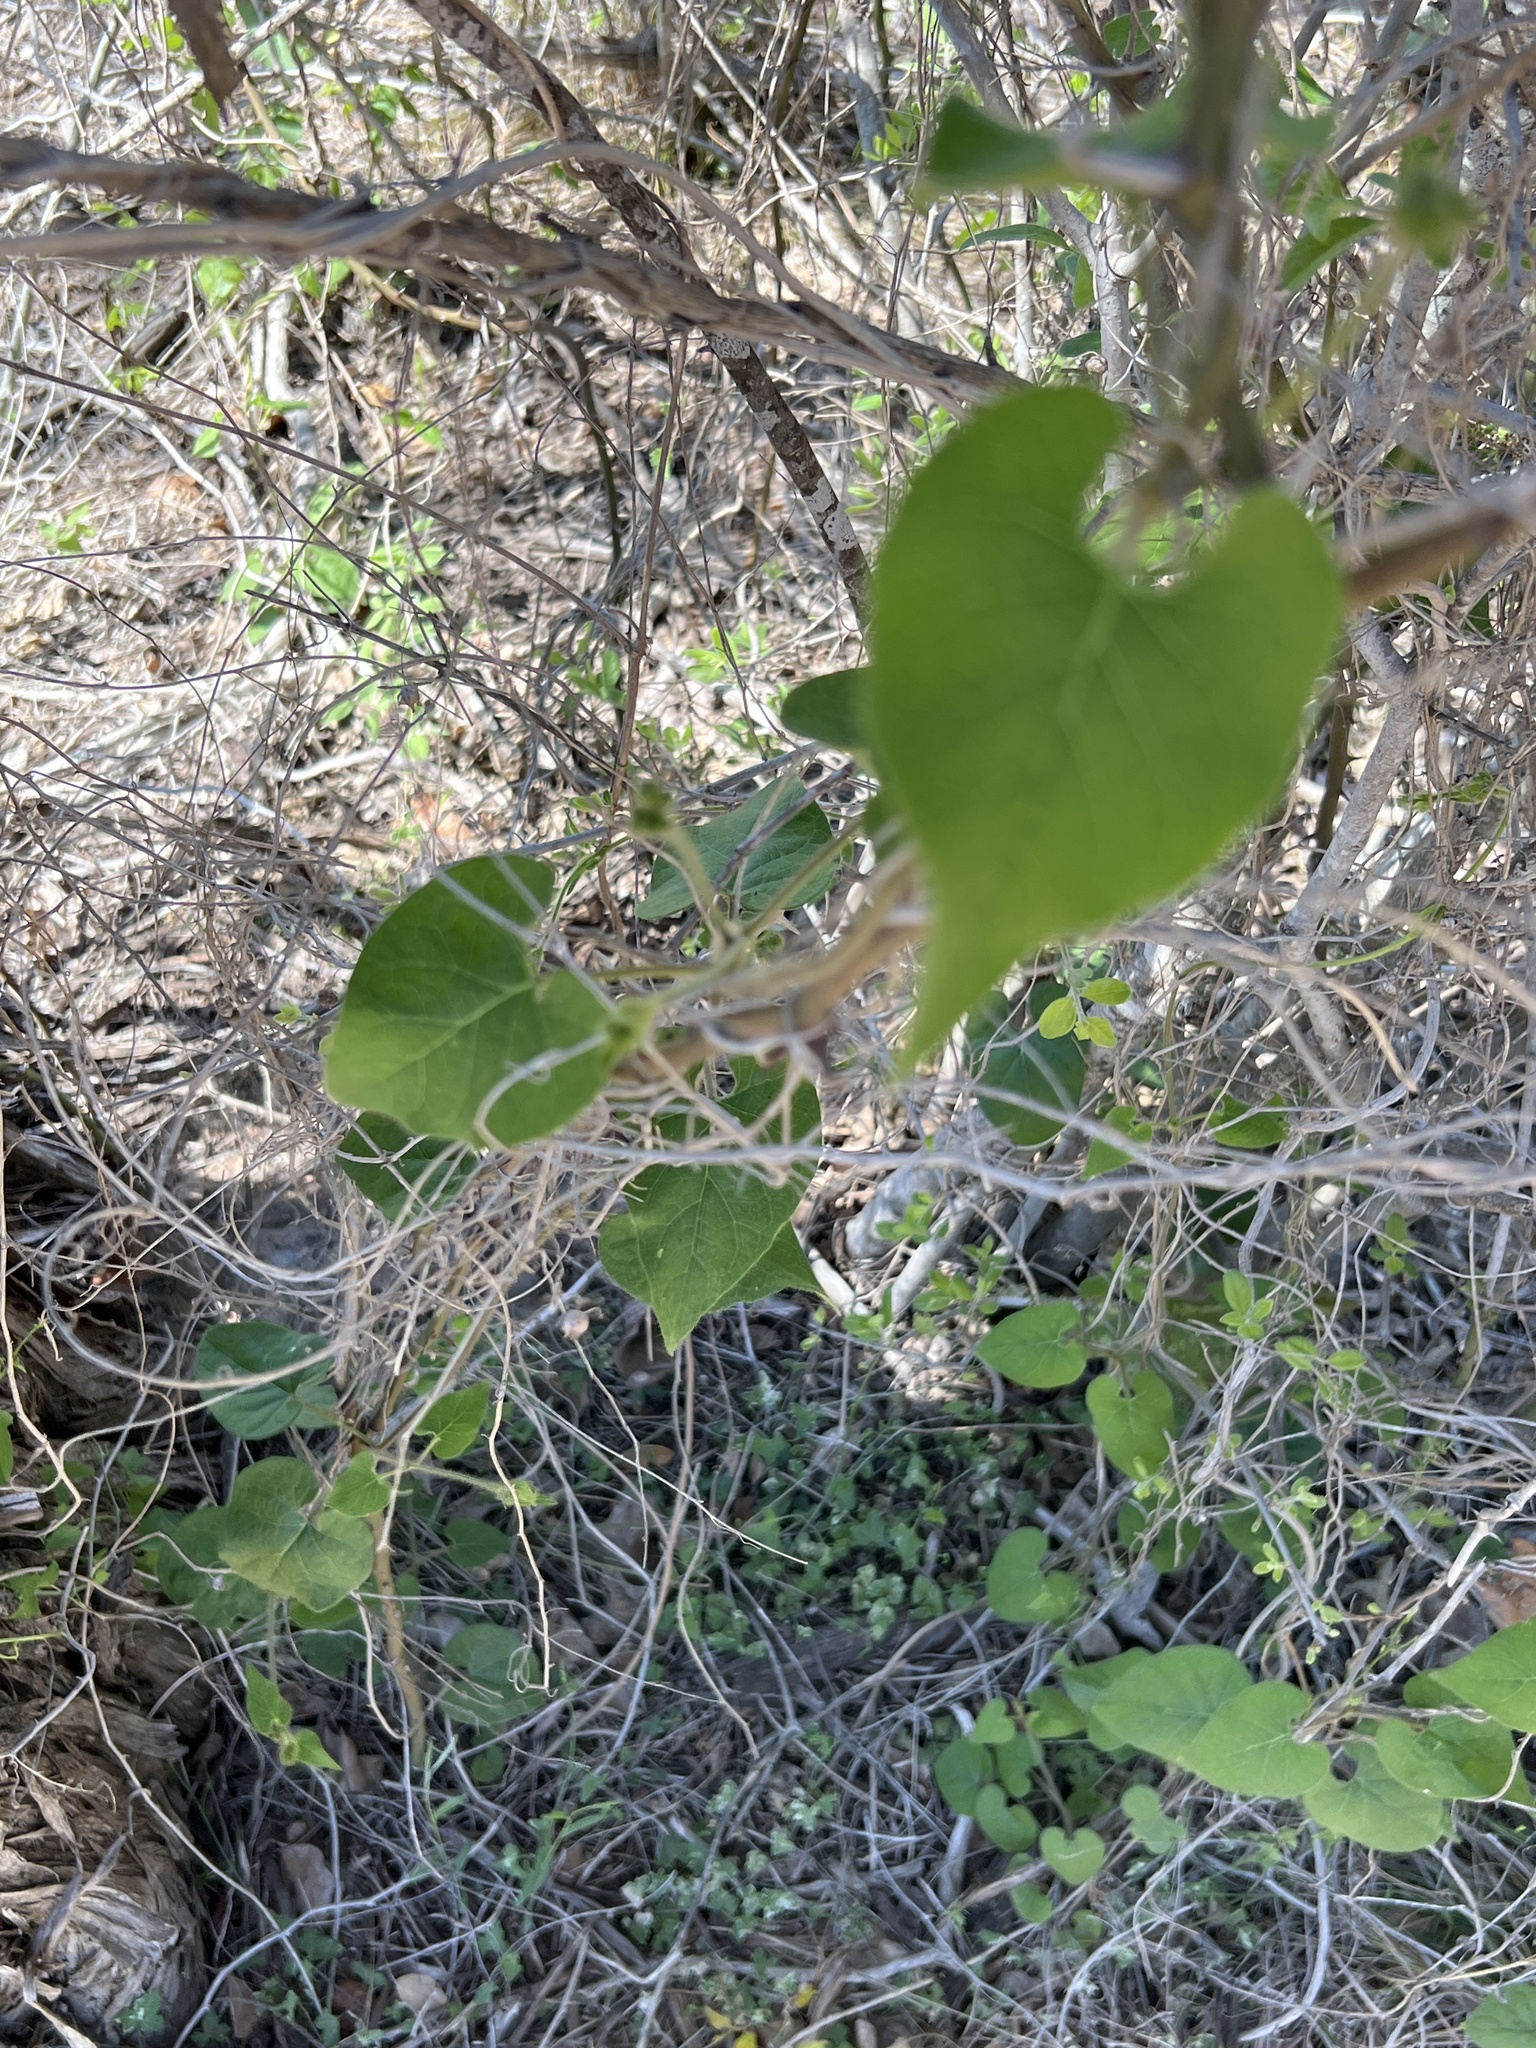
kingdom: Plantae
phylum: Tracheophyta
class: Magnoliopsida
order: Gentianales
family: Apocynaceae
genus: Dictyanthus
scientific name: Dictyanthus reticulatus
